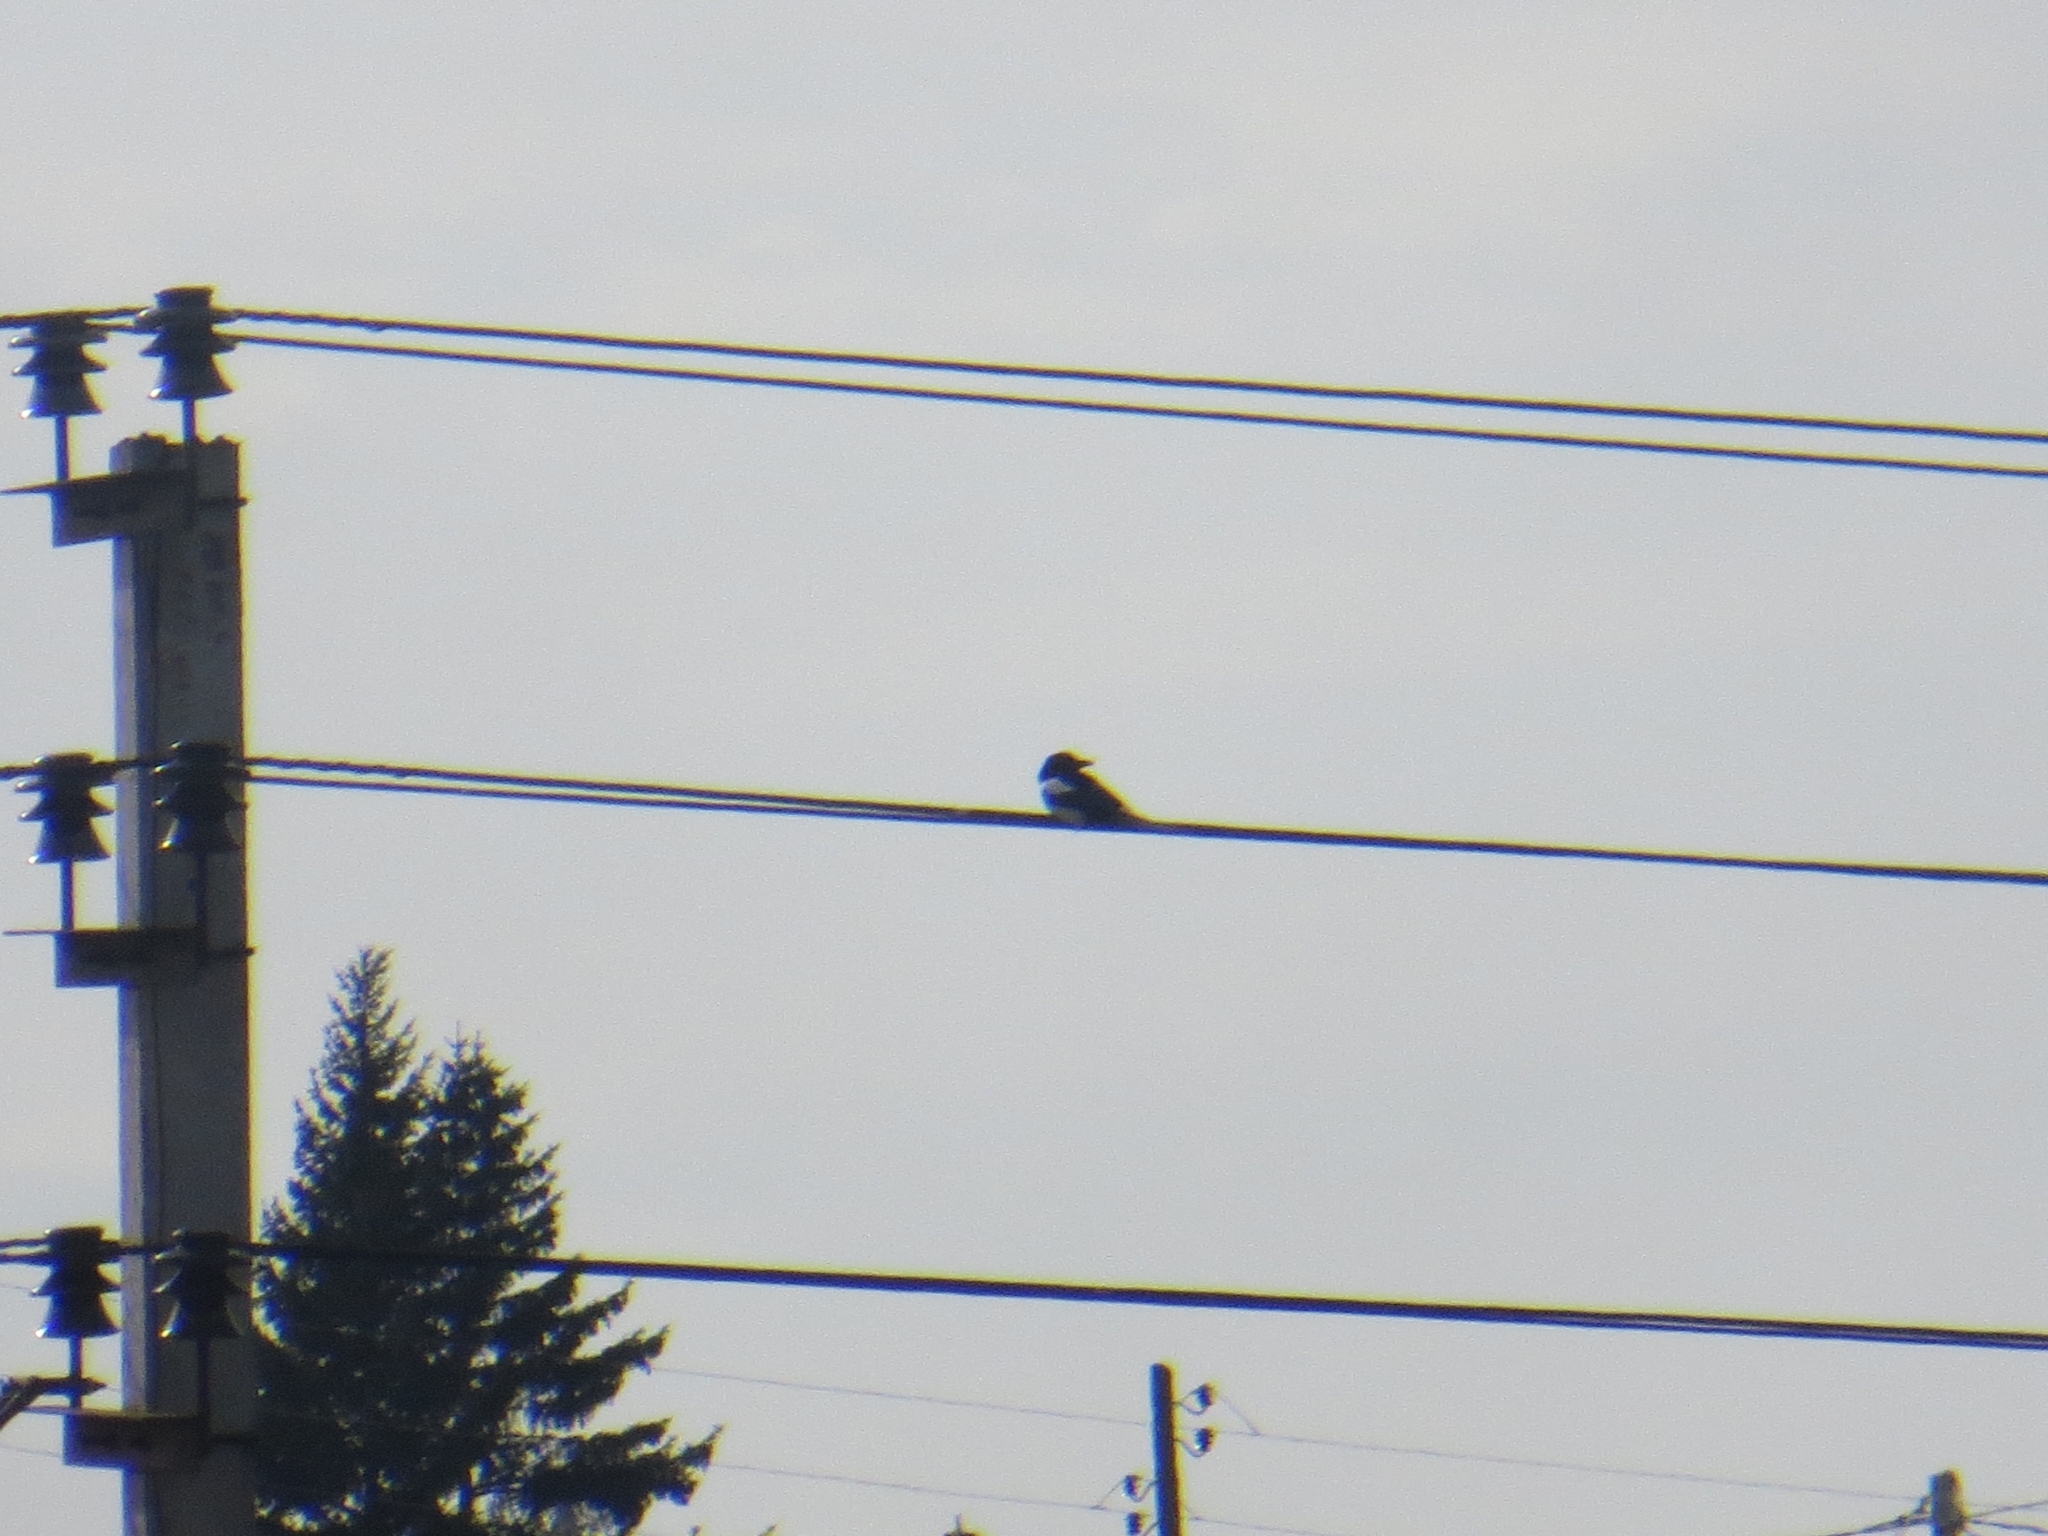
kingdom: Animalia
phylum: Chordata
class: Aves
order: Passeriformes
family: Corvidae
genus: Pica
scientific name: Pica pica
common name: Eurasian magpie
